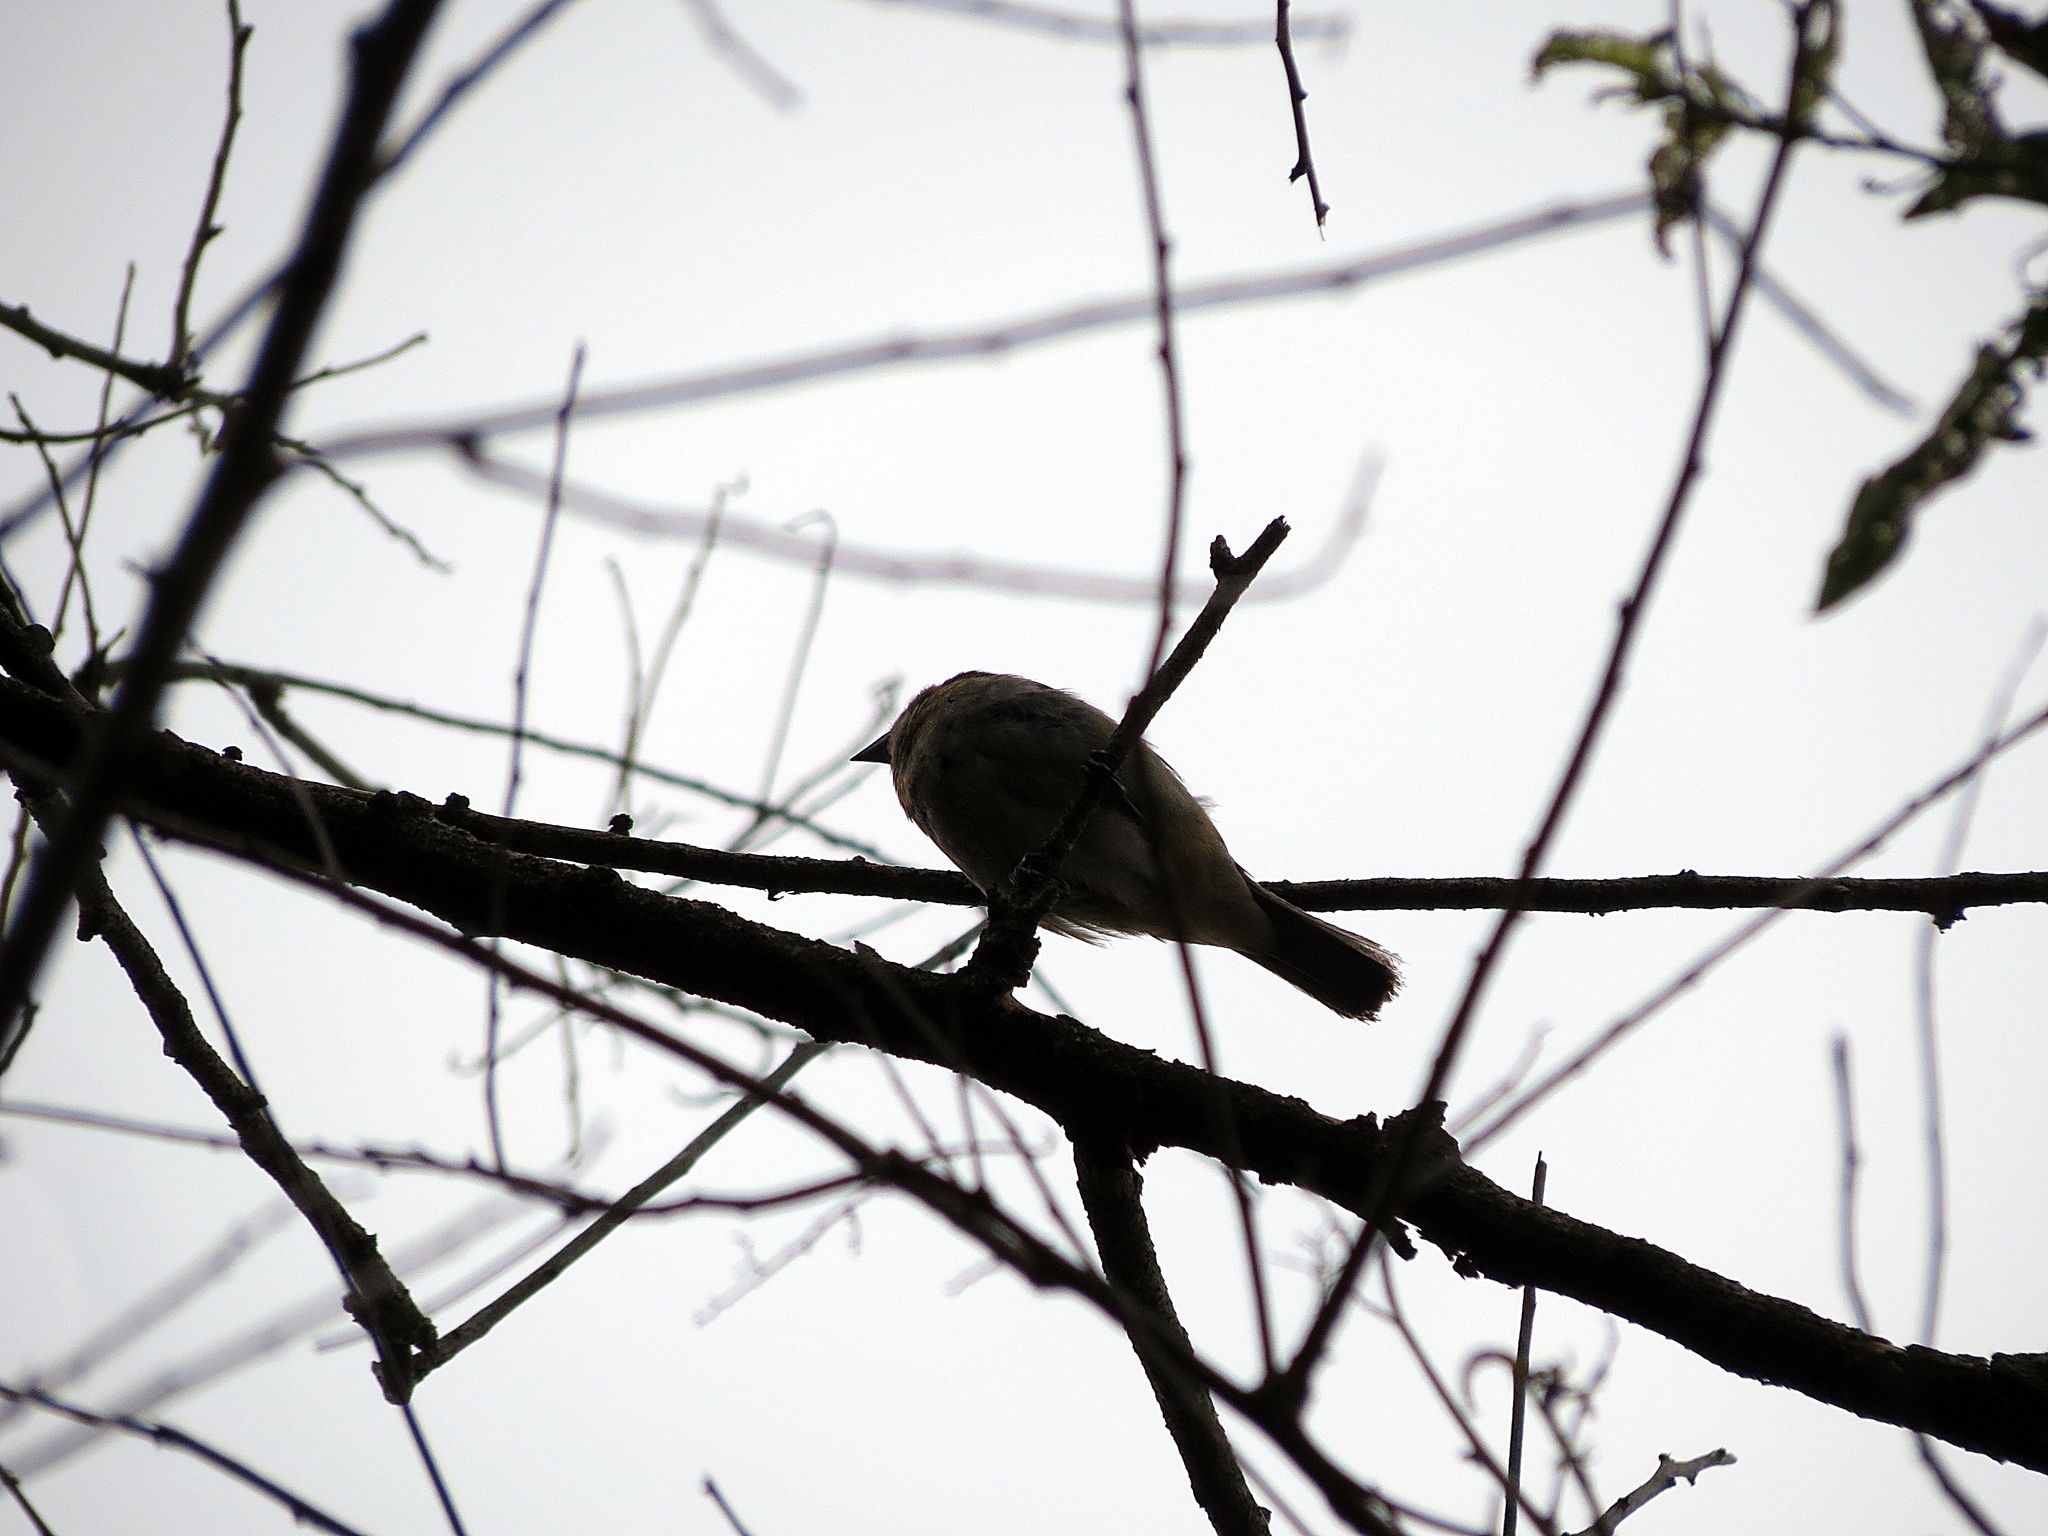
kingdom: Animalia
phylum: Chordata
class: Aves
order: Passeriformes
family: Thraupidae
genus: Stilpnia
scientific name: Stilpnia vitriolina
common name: Scrub tanager
